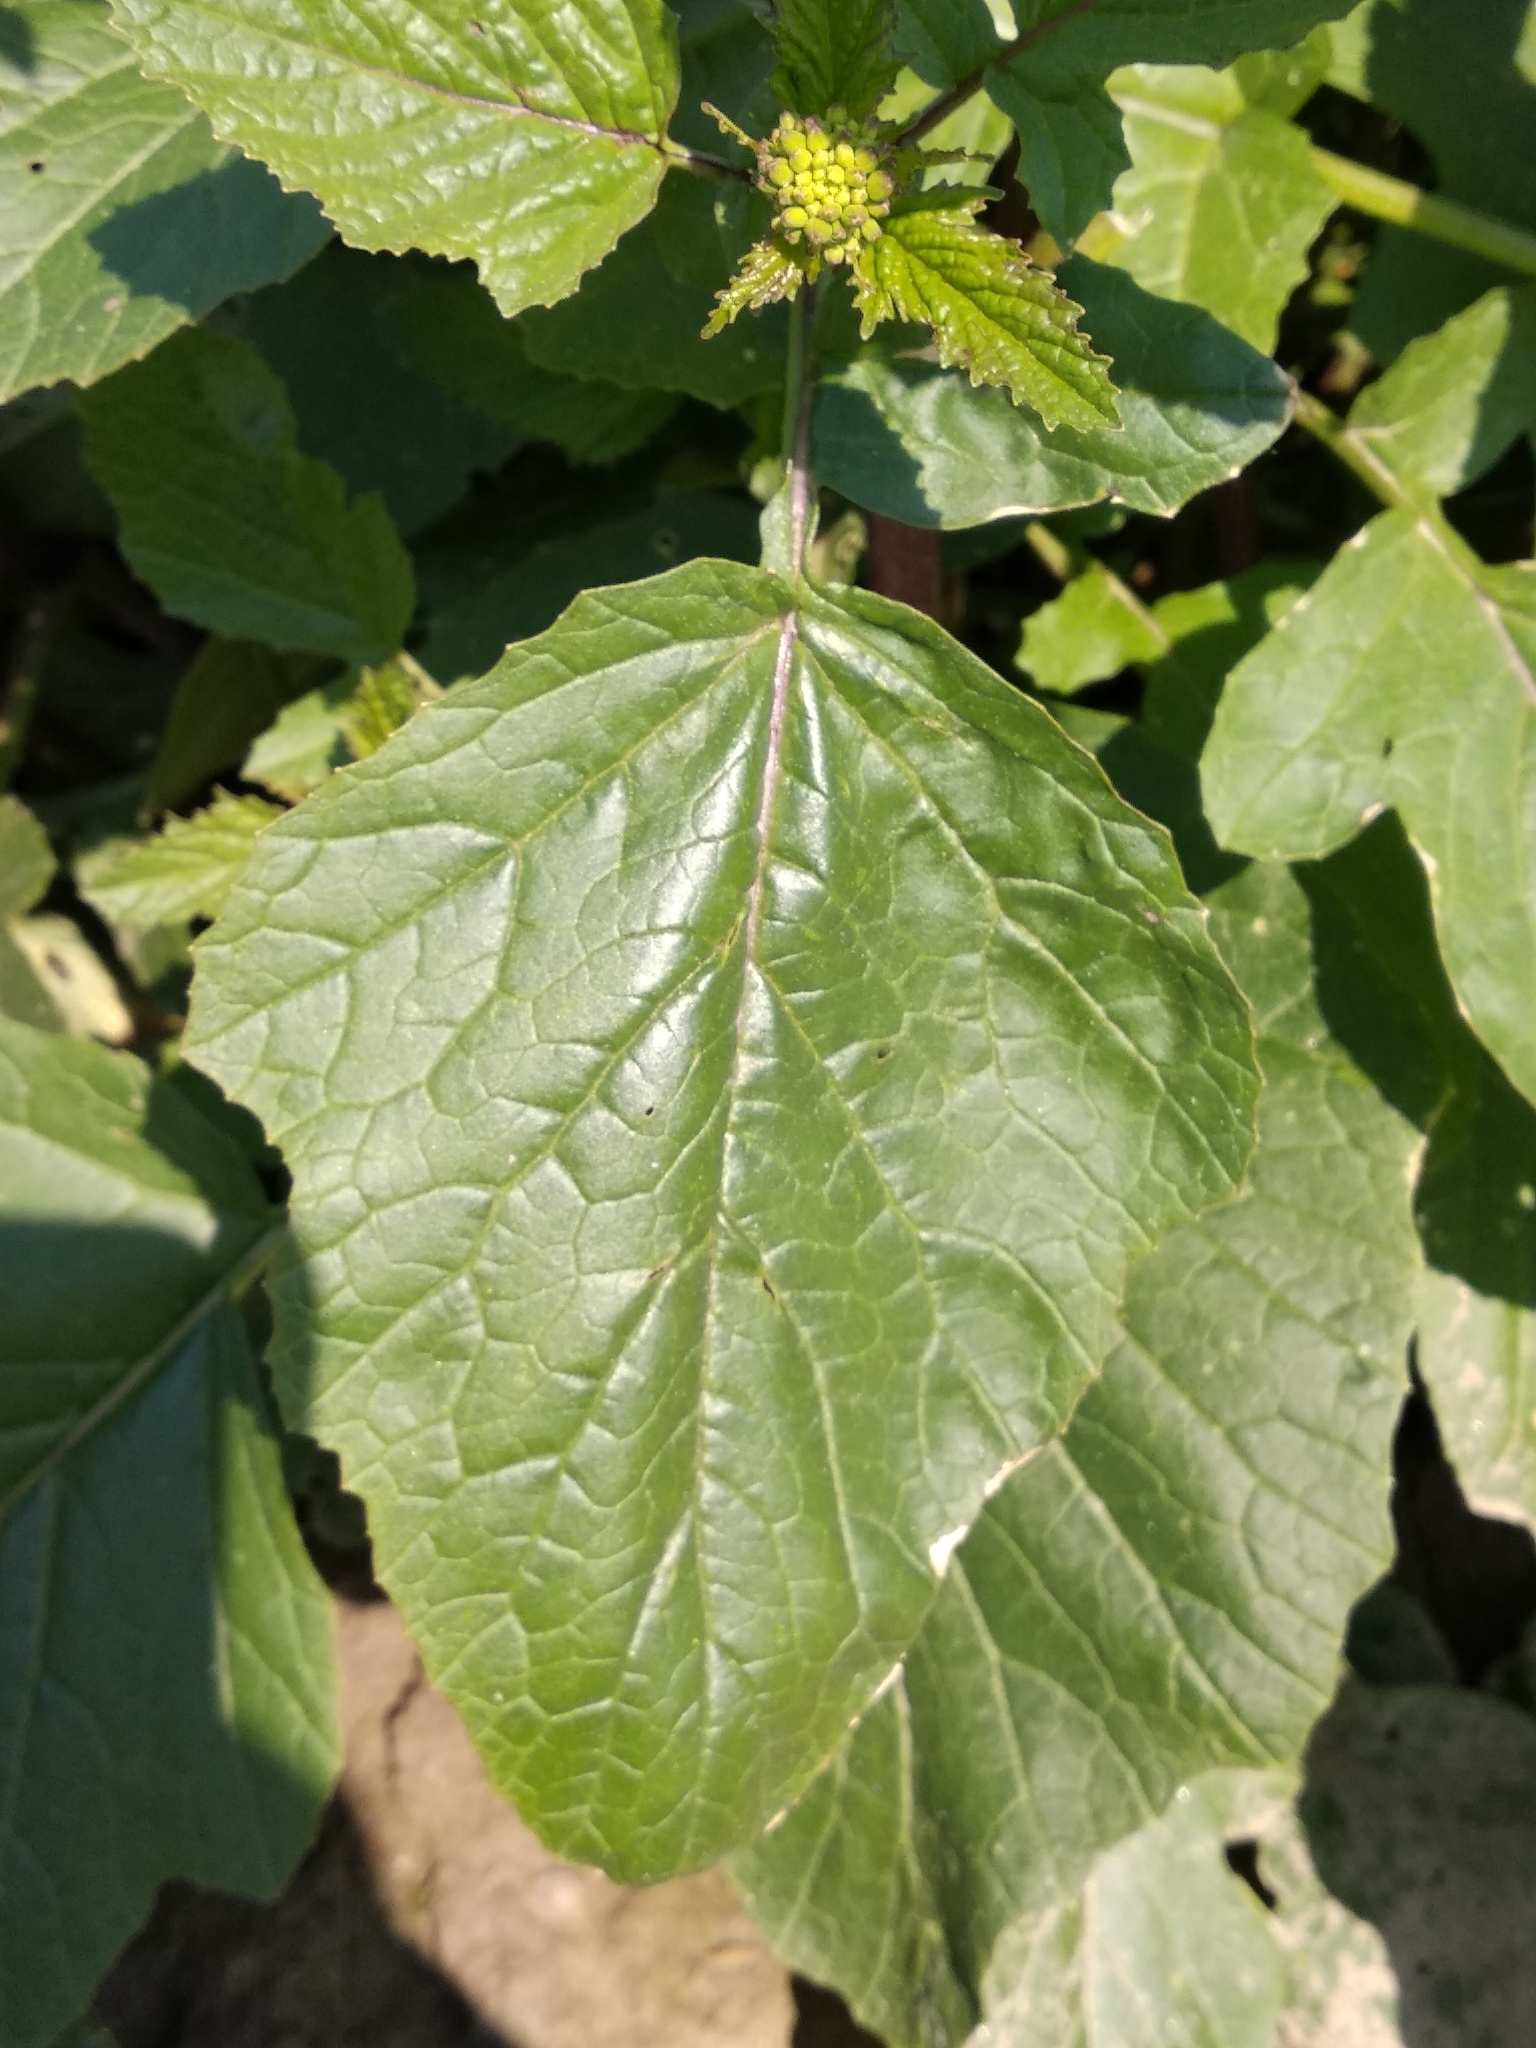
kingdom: Plantae
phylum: Tracheophyta
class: Magnoliopsida
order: Brassicales
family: Brassicaceae
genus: Sinapis
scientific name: Sinapis arvensis
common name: Charlock
